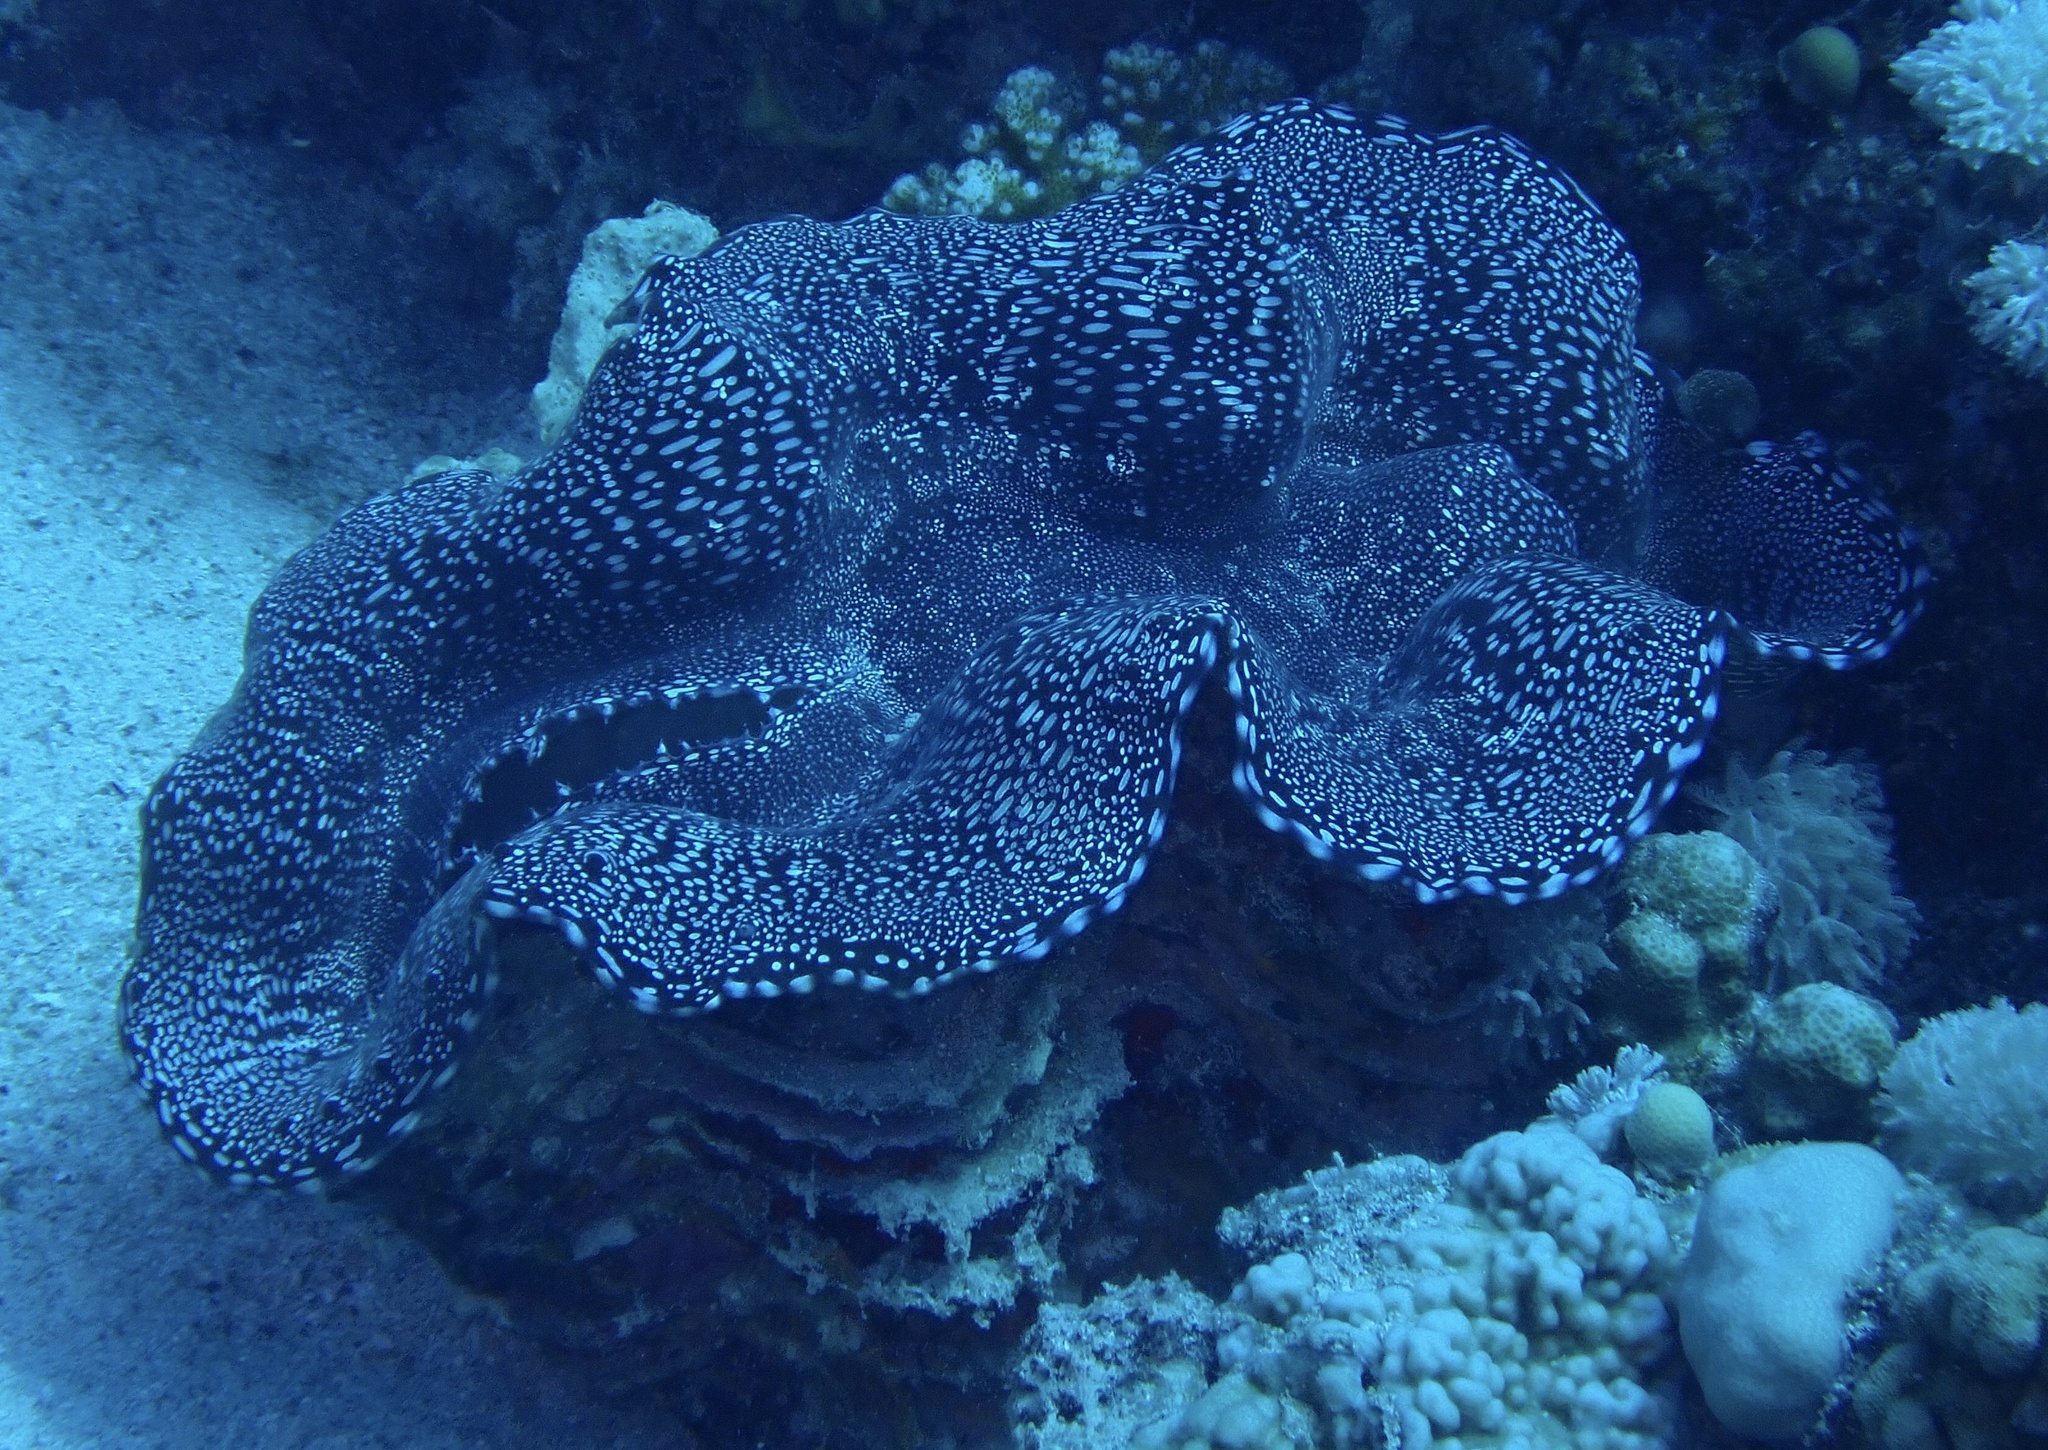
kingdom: Animalia
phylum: Mollusca
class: Bivalvia
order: Cardiida
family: Cardiidae
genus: Tridacna
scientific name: Tridacna squamosa
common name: Fluted clam
